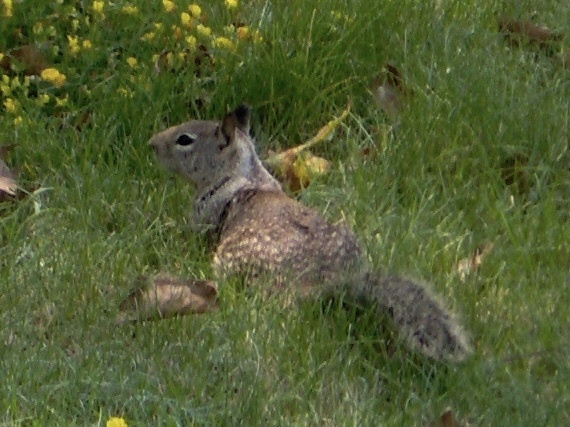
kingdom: Animalia
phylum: Chordata
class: Mammalia
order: Rodentia
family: Sciuridae
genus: Otospermophilus
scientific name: Otospermophilus beecheyi
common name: California ground squirrel
